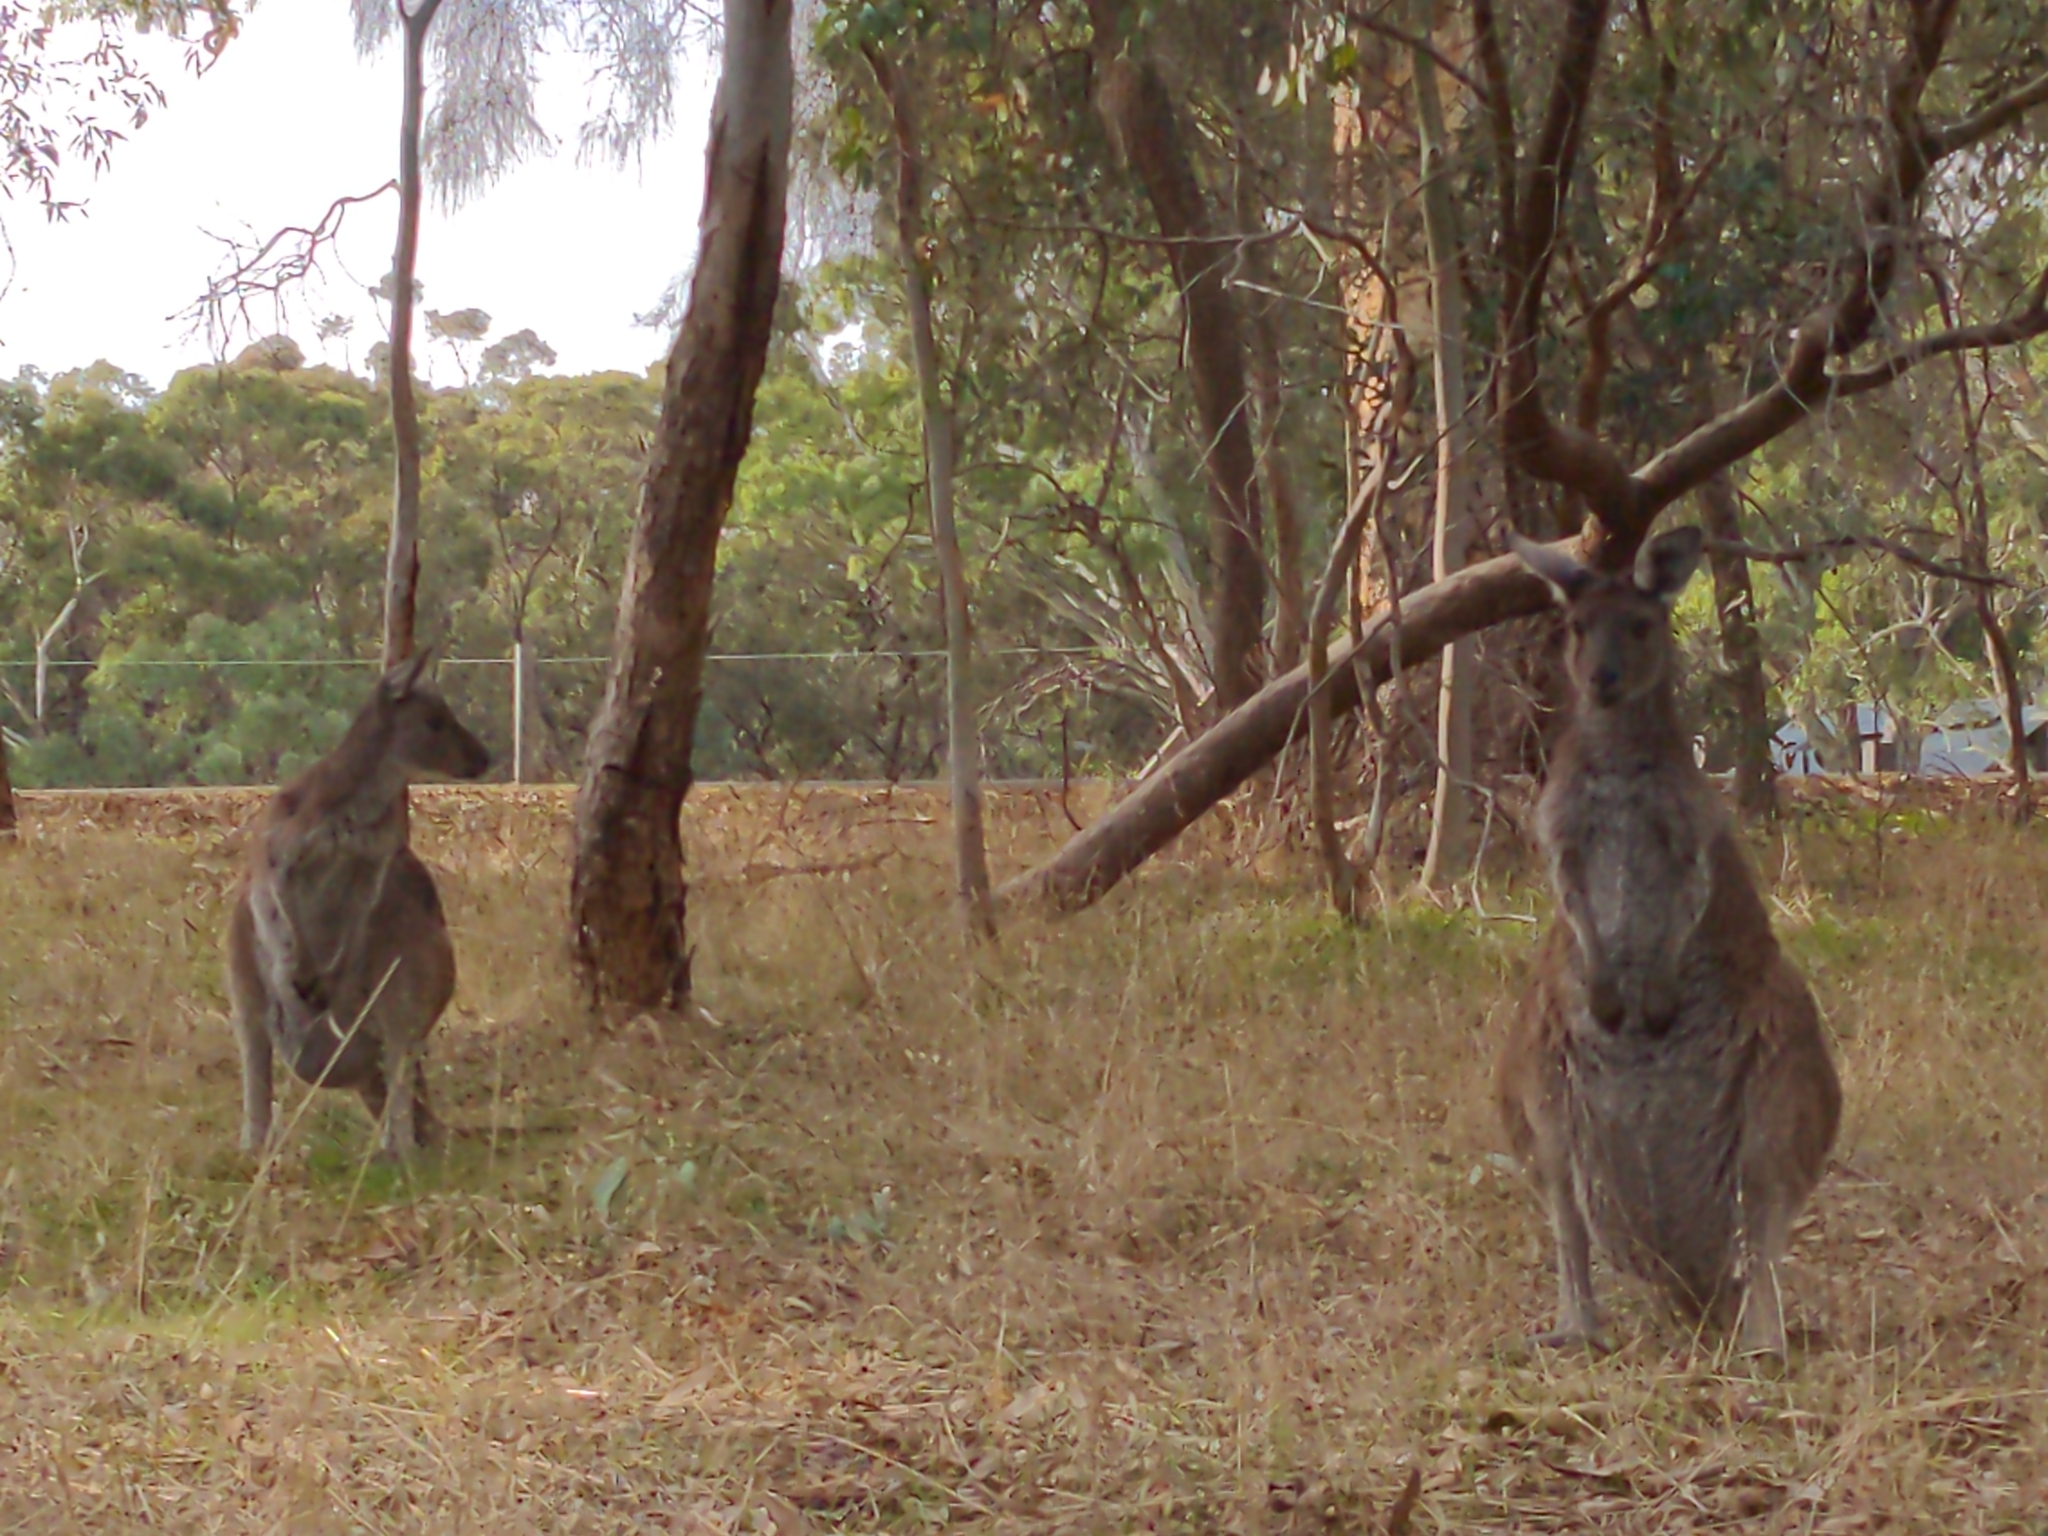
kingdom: Animalia
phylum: Chordata
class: Mammalia
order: Diprotodontia
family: Macropodidae
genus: Macropus
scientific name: Macropus fuliginosus
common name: Western grey kangaroo
